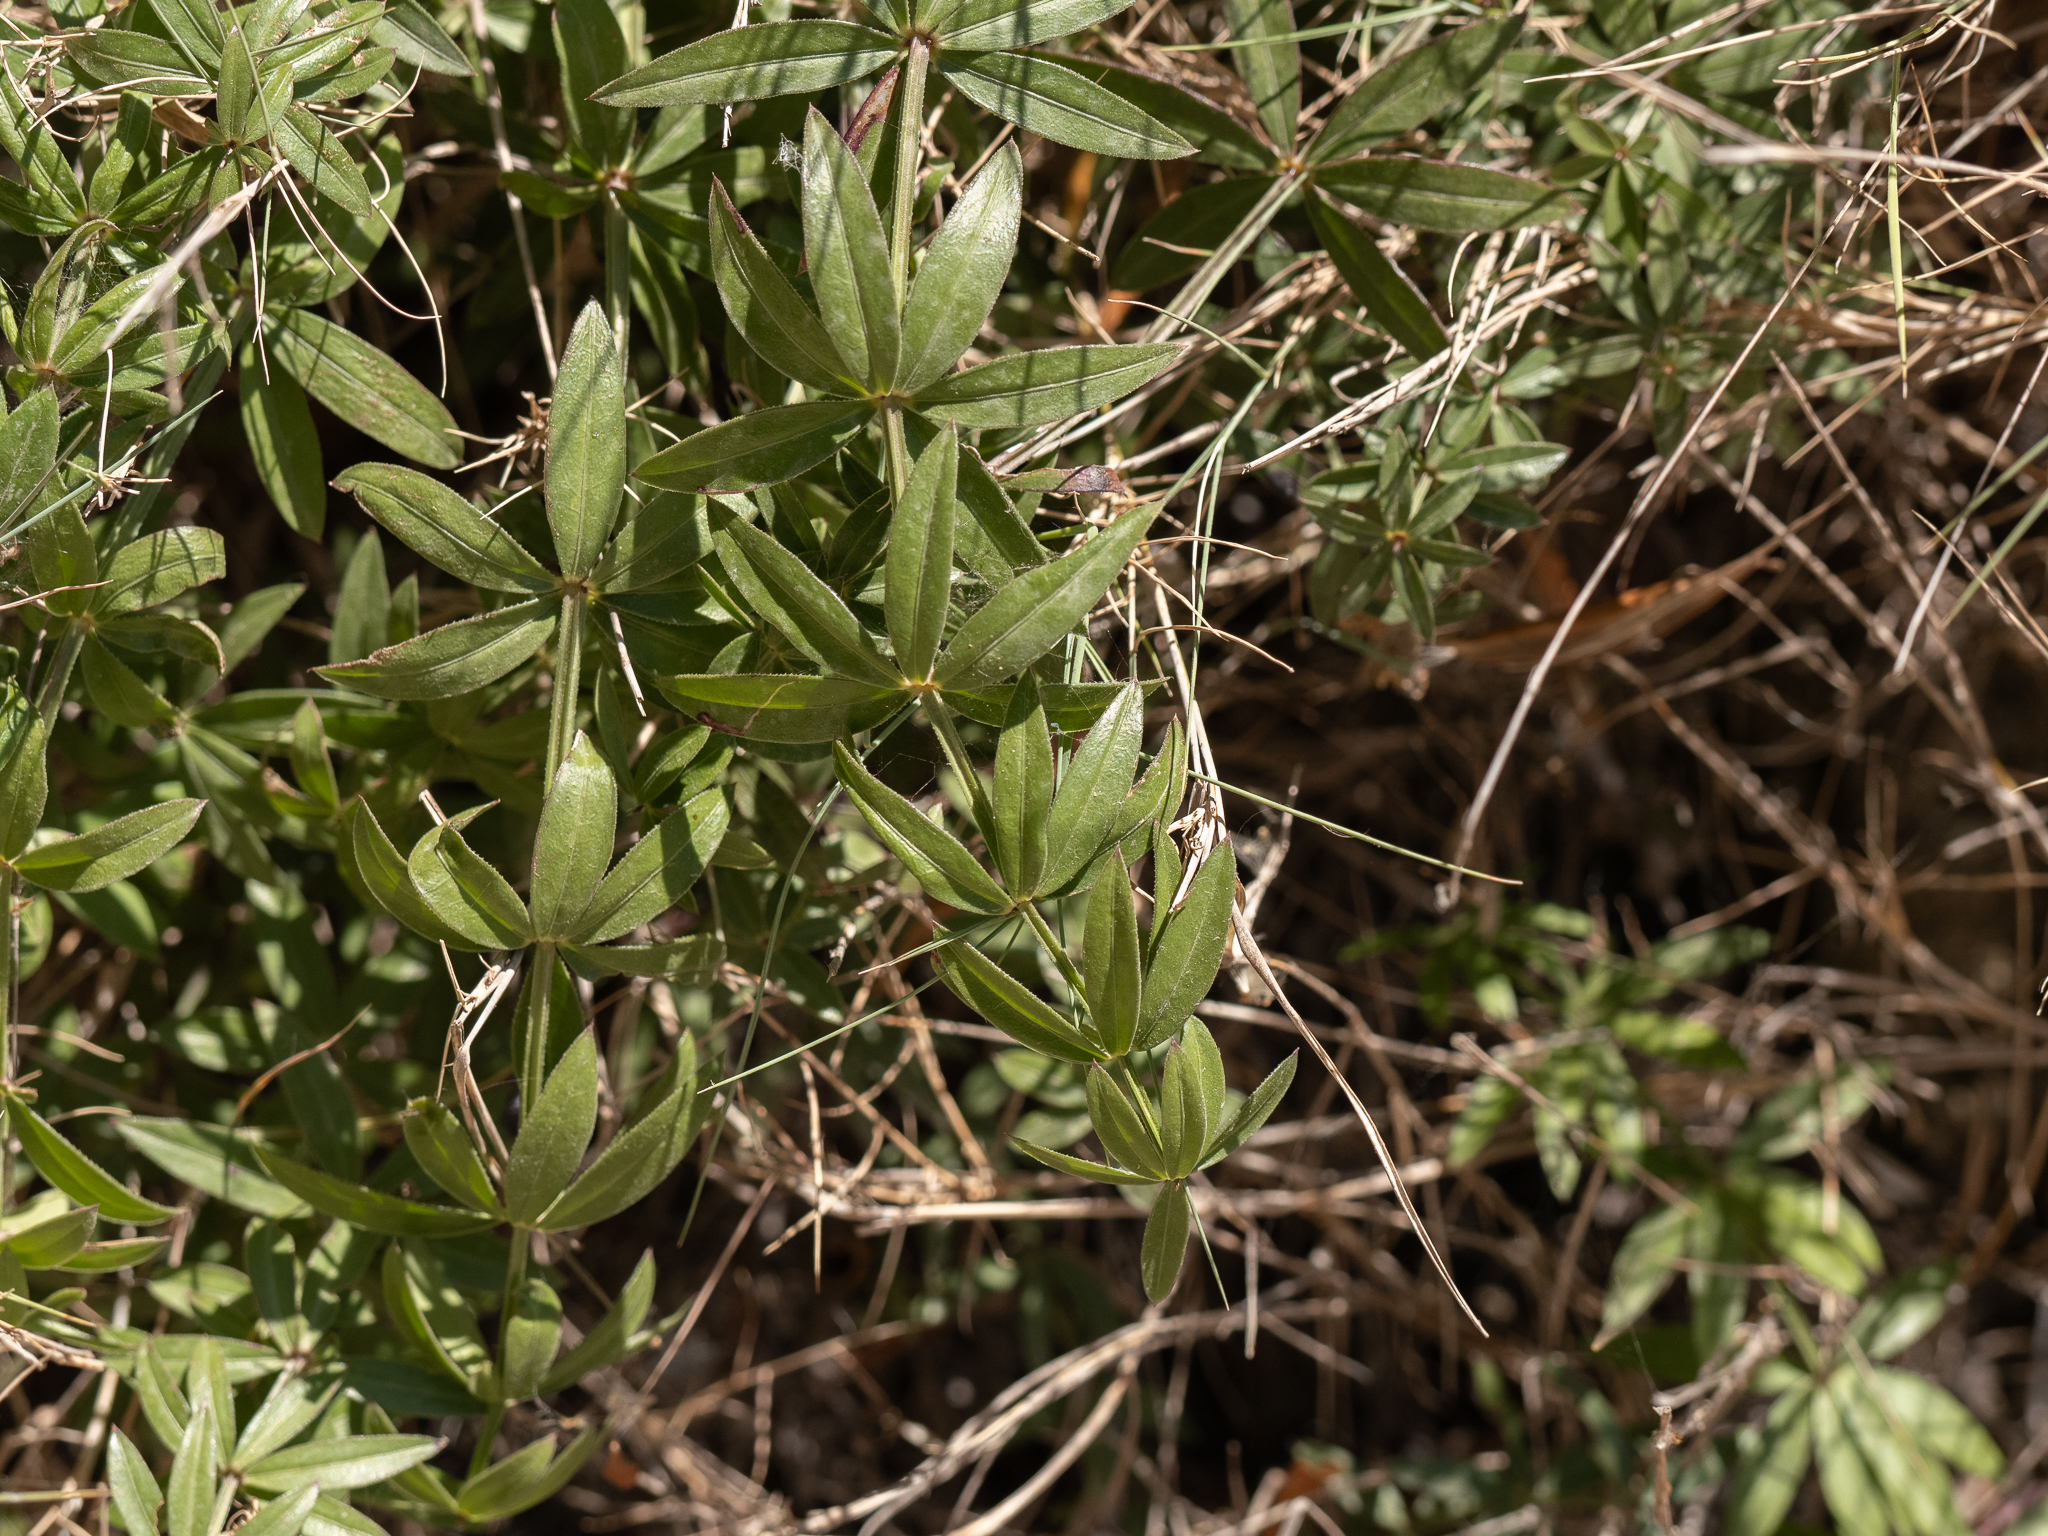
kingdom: Plantae
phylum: Tracheophyta
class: Magnoliopsida
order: Gentianales
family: Rubiaceae
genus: Rubia
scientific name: Rubia peregrina
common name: Wild madder
